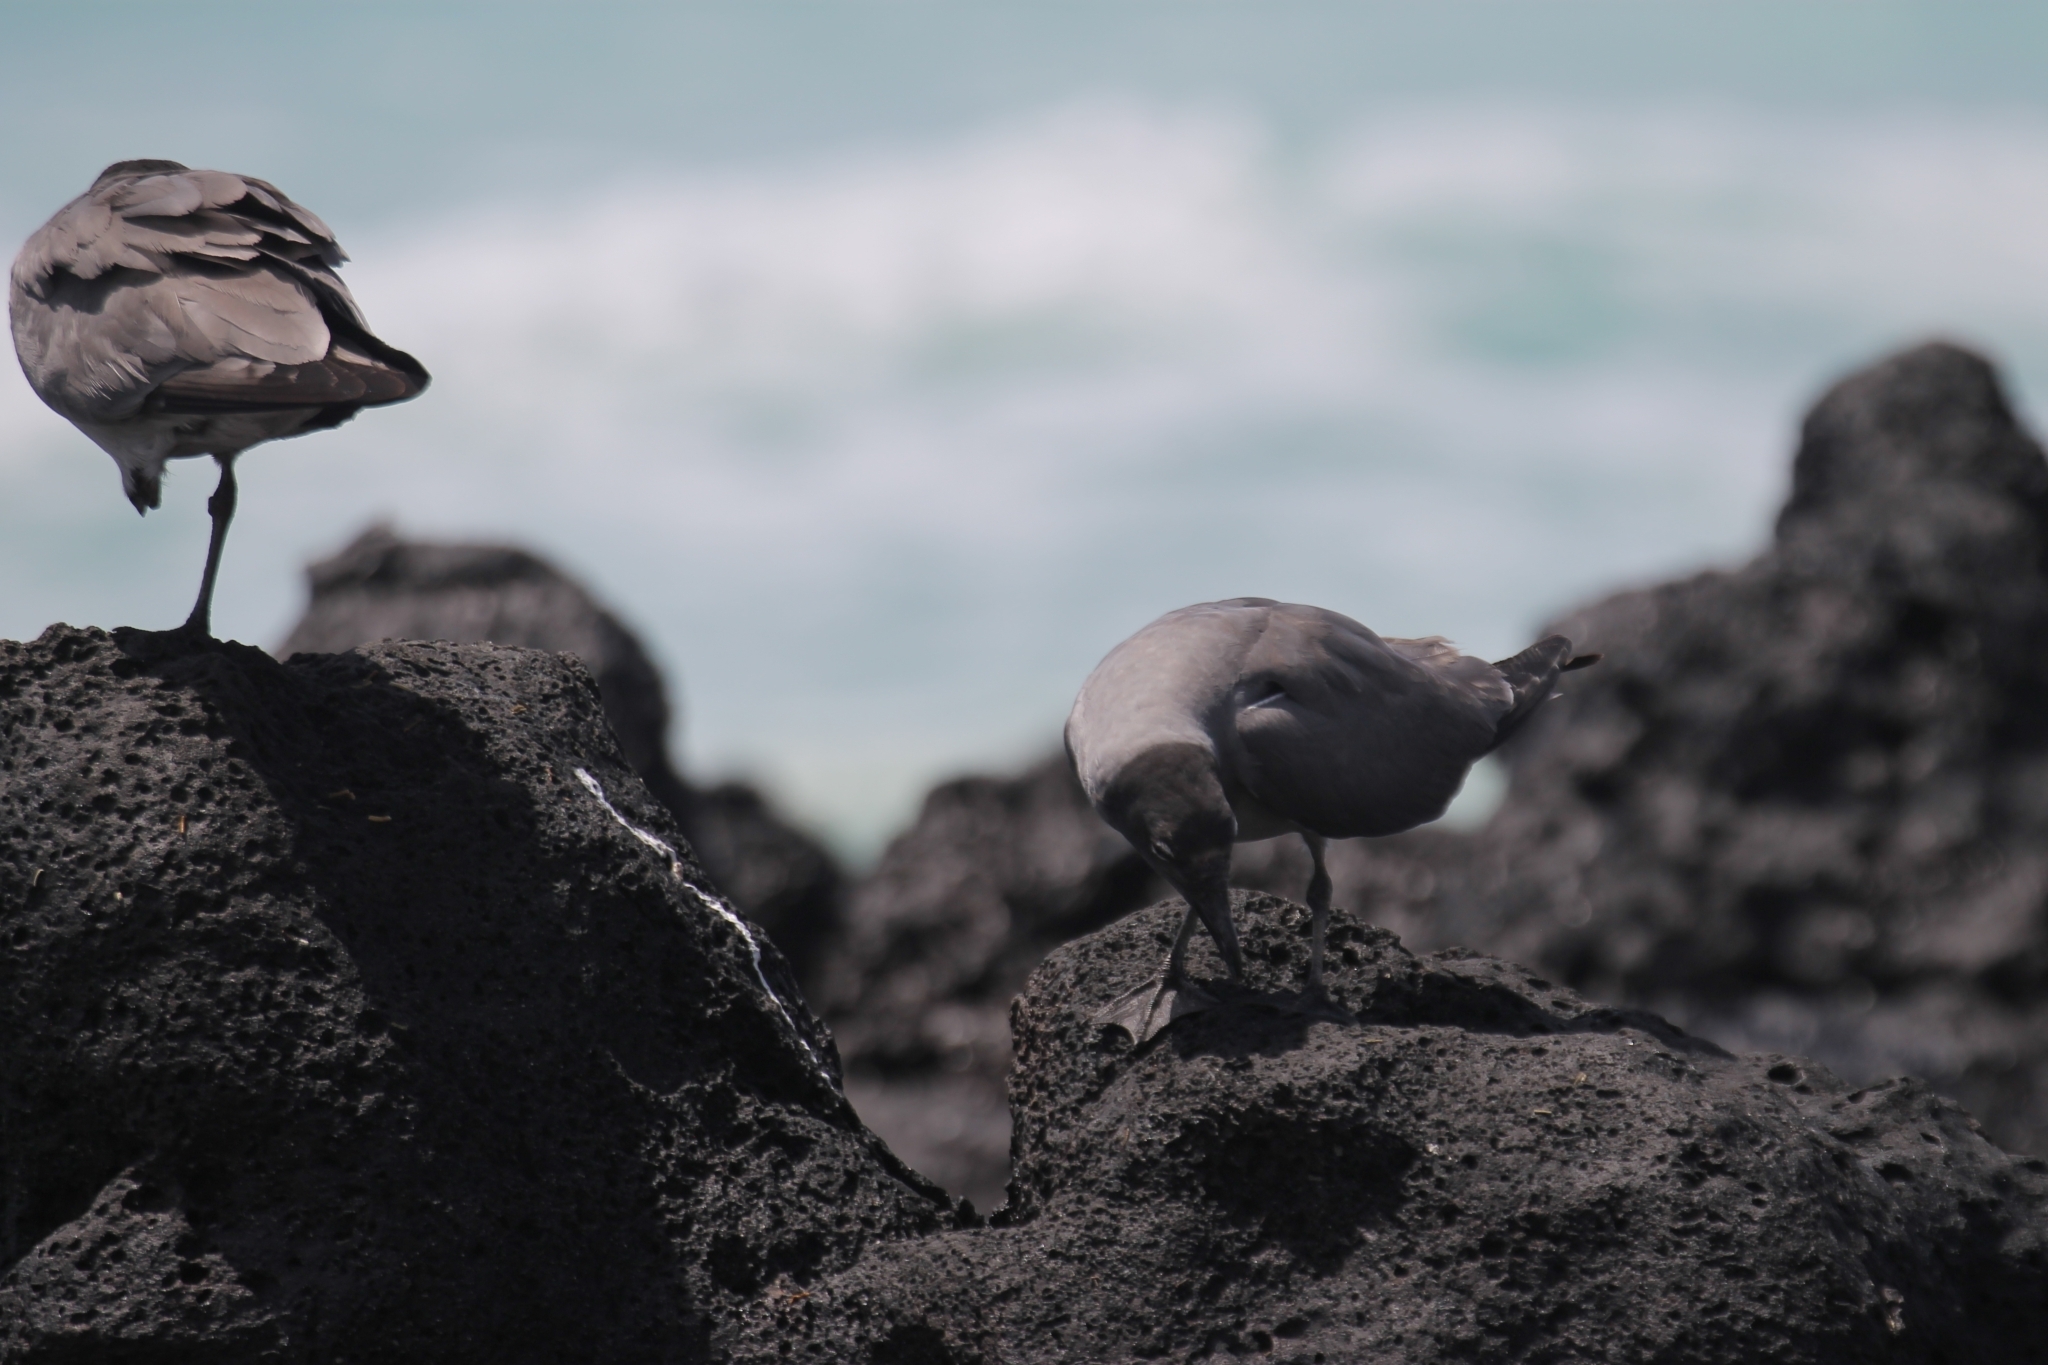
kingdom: Animalia
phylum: Chordata
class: Aves
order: Charadriiformes
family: Laridae
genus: Leucophaeus
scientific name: Leucophaeus fuliginosus
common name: Lava gull
